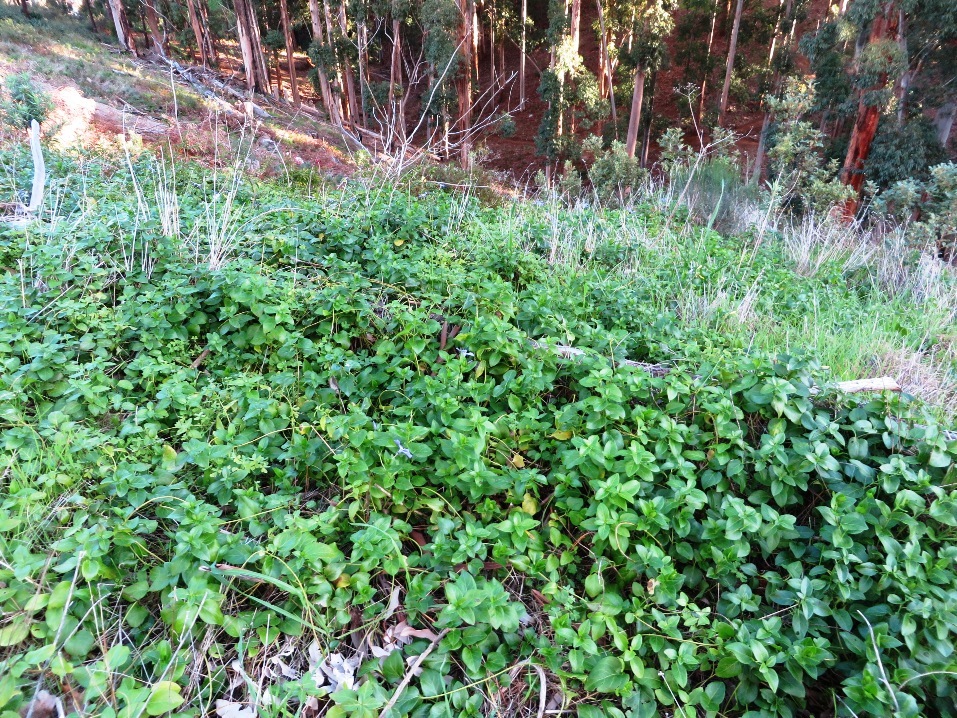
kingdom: Plantae
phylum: Tracheophyta
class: Magnoliopsida
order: Gentianales
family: Apocynaceae
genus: Vinca
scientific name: Vinca major
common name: Greater periwinkle
